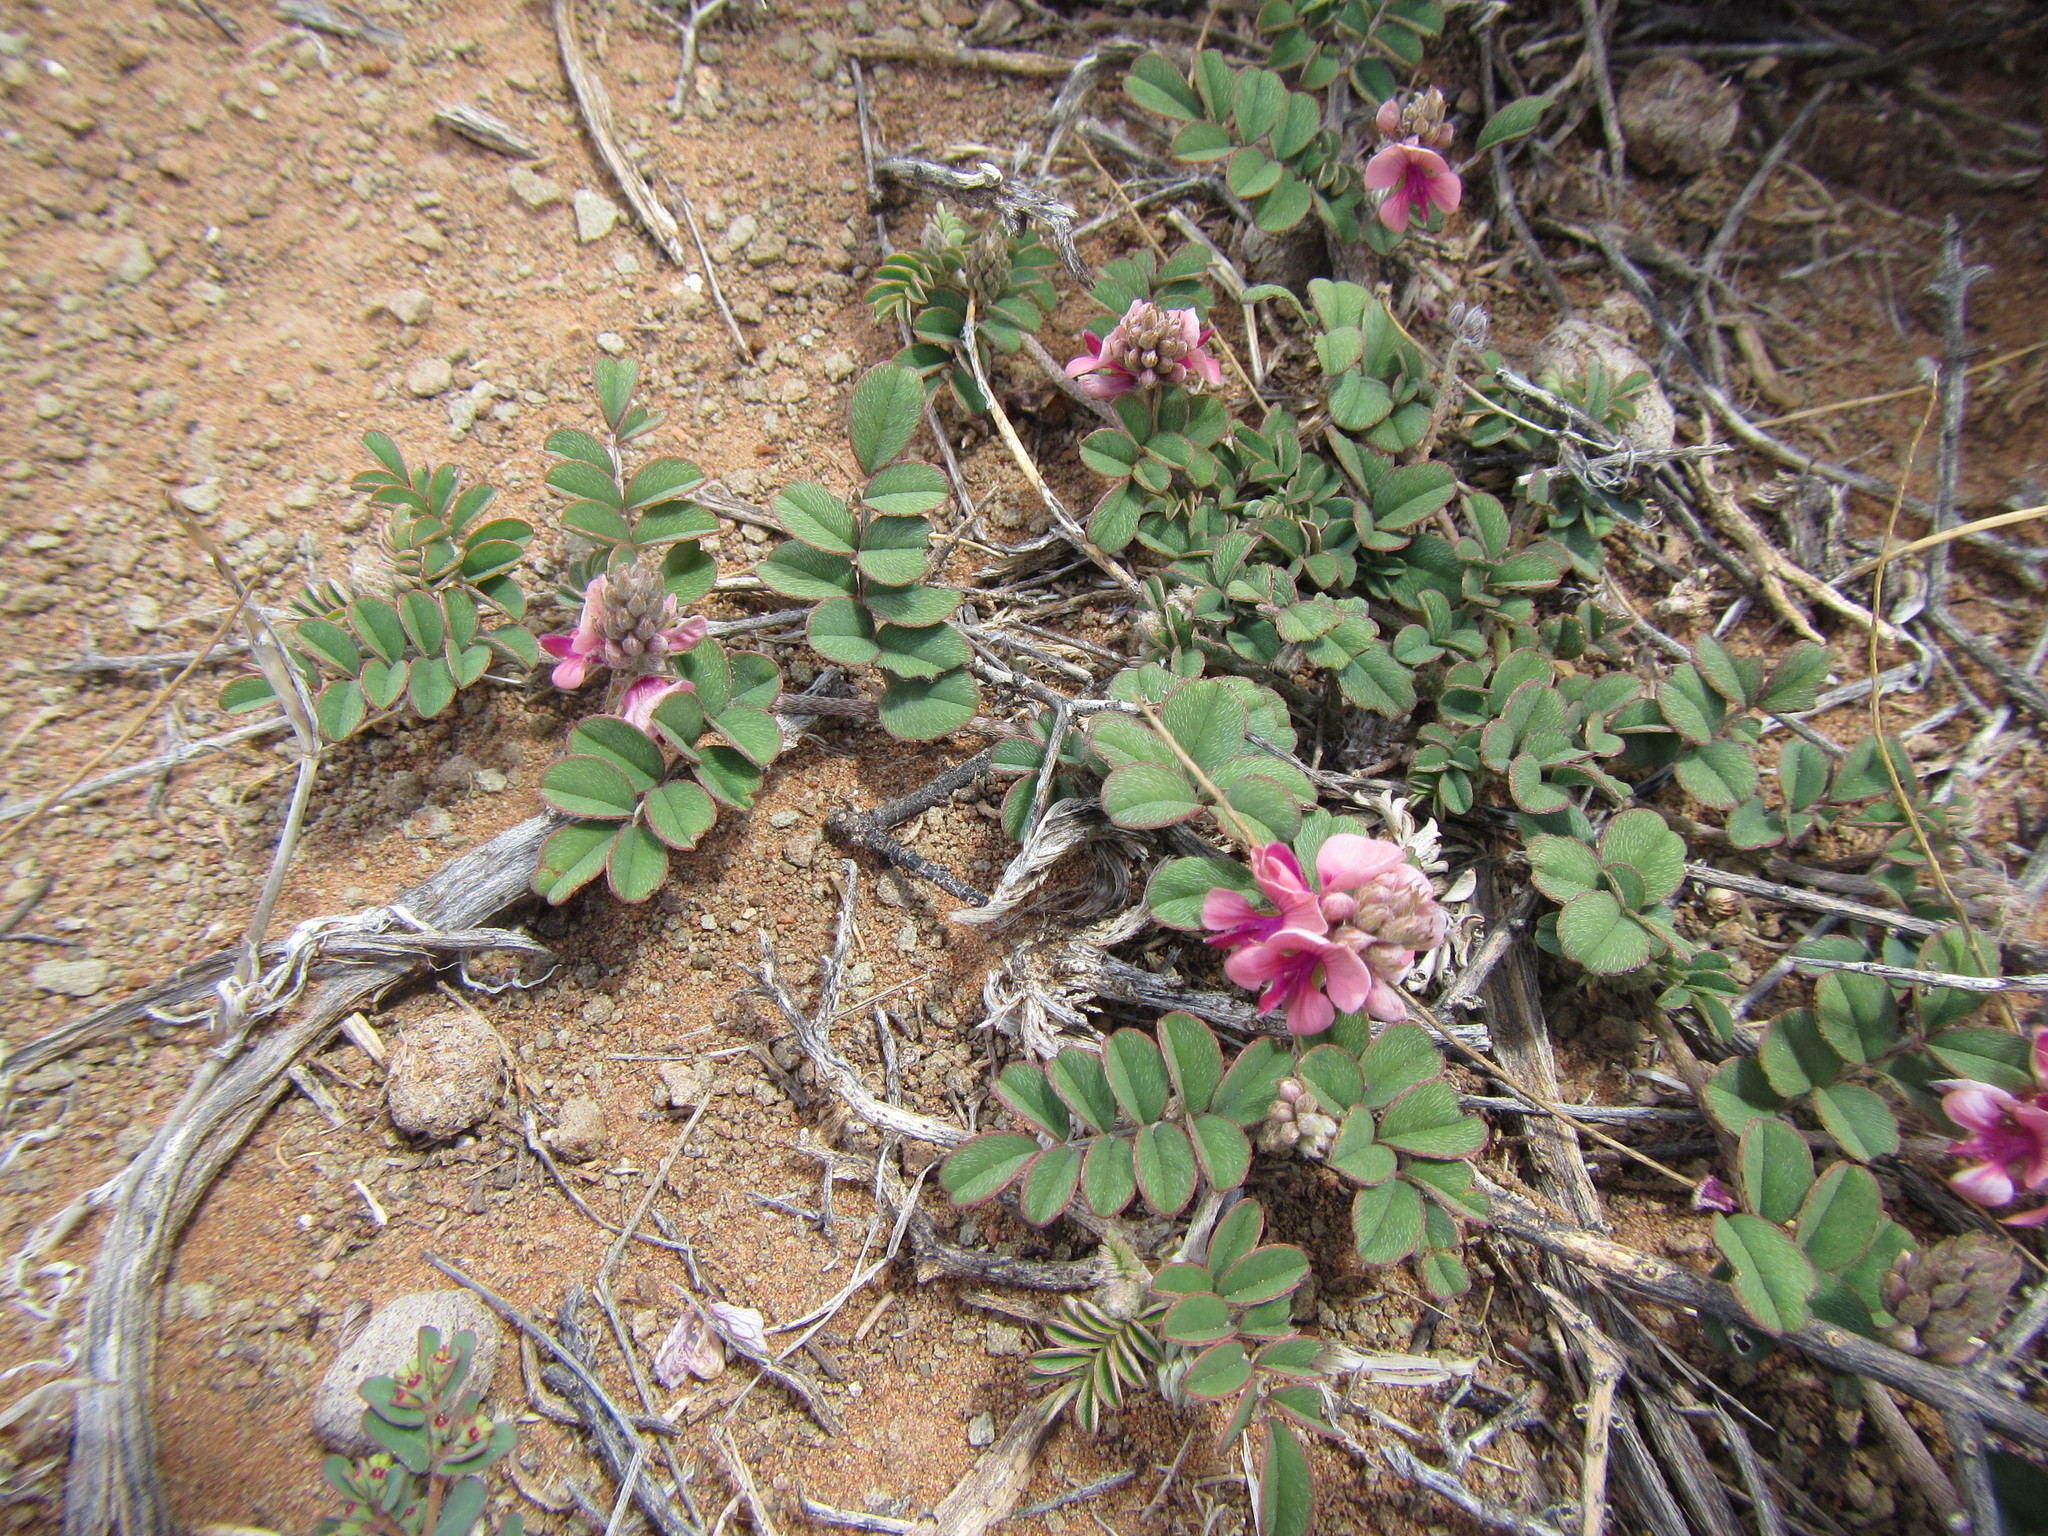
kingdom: Plantae
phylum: Tracheophyta
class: Magnoliopsida
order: Fabales
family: Fabaceae
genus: Indigofera
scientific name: Indigofera alternans
